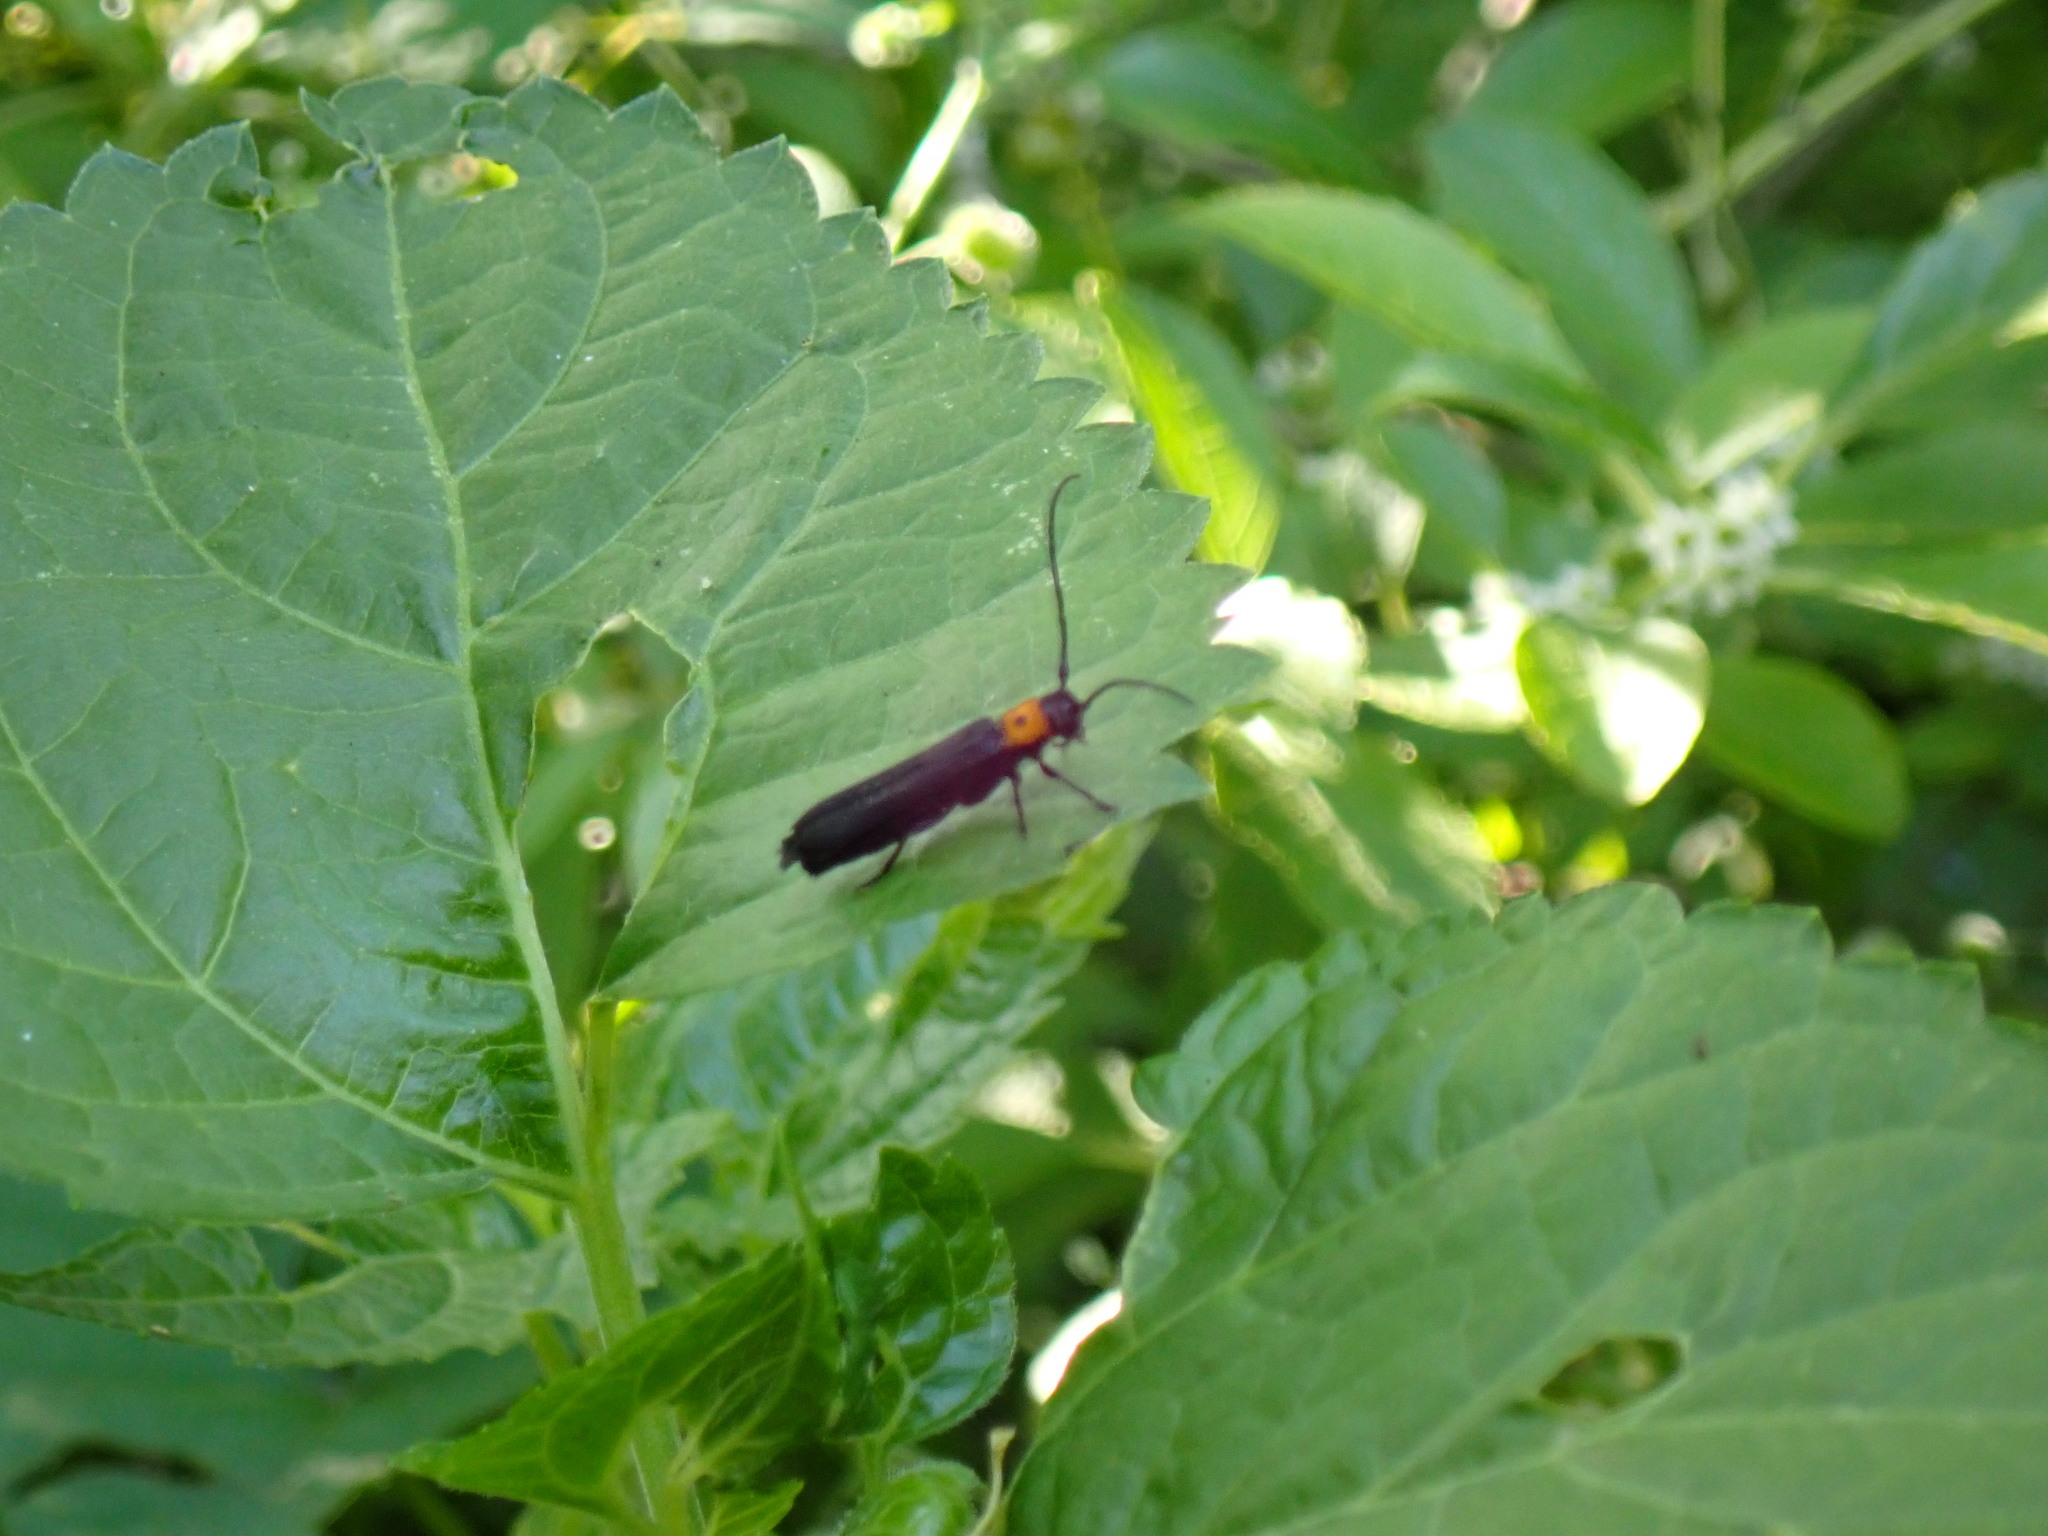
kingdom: Animalia
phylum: Arthropoda
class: Insecta
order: Coleoptera
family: Cerambycidae
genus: Oberea
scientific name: Oberea perspicillata
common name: Raspberry cane borer
